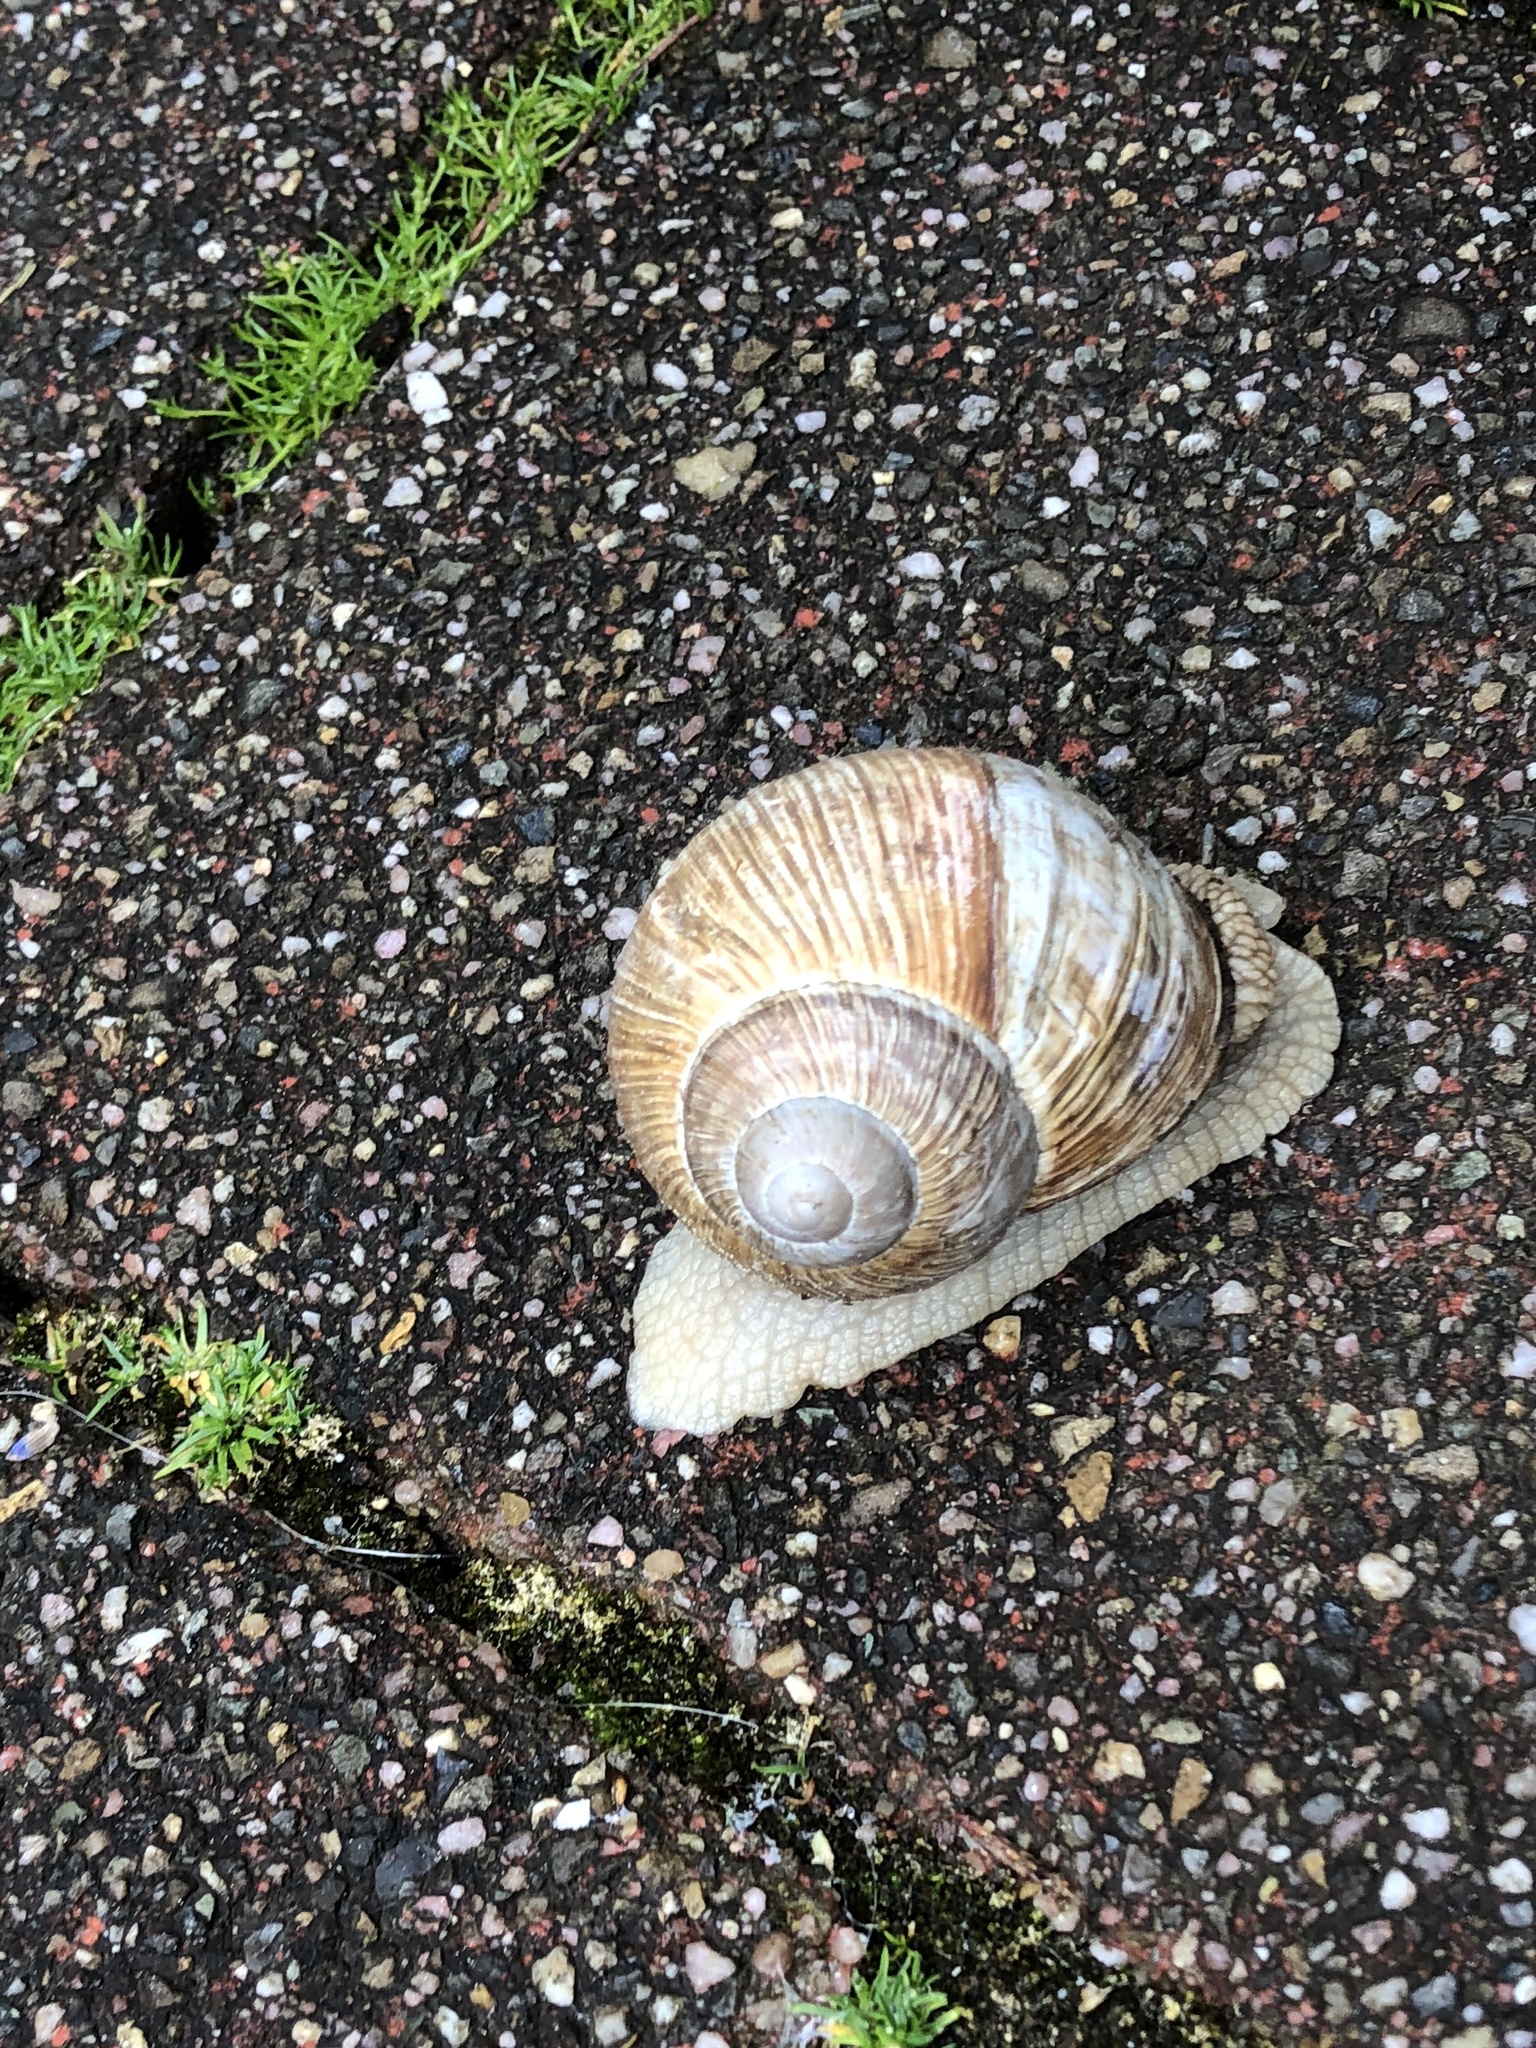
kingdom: Animalia
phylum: Mollusca
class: Gastropoda
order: Stylommatophora
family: Helicidae
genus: Helix
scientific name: Helix pomatia
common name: Roman snail
